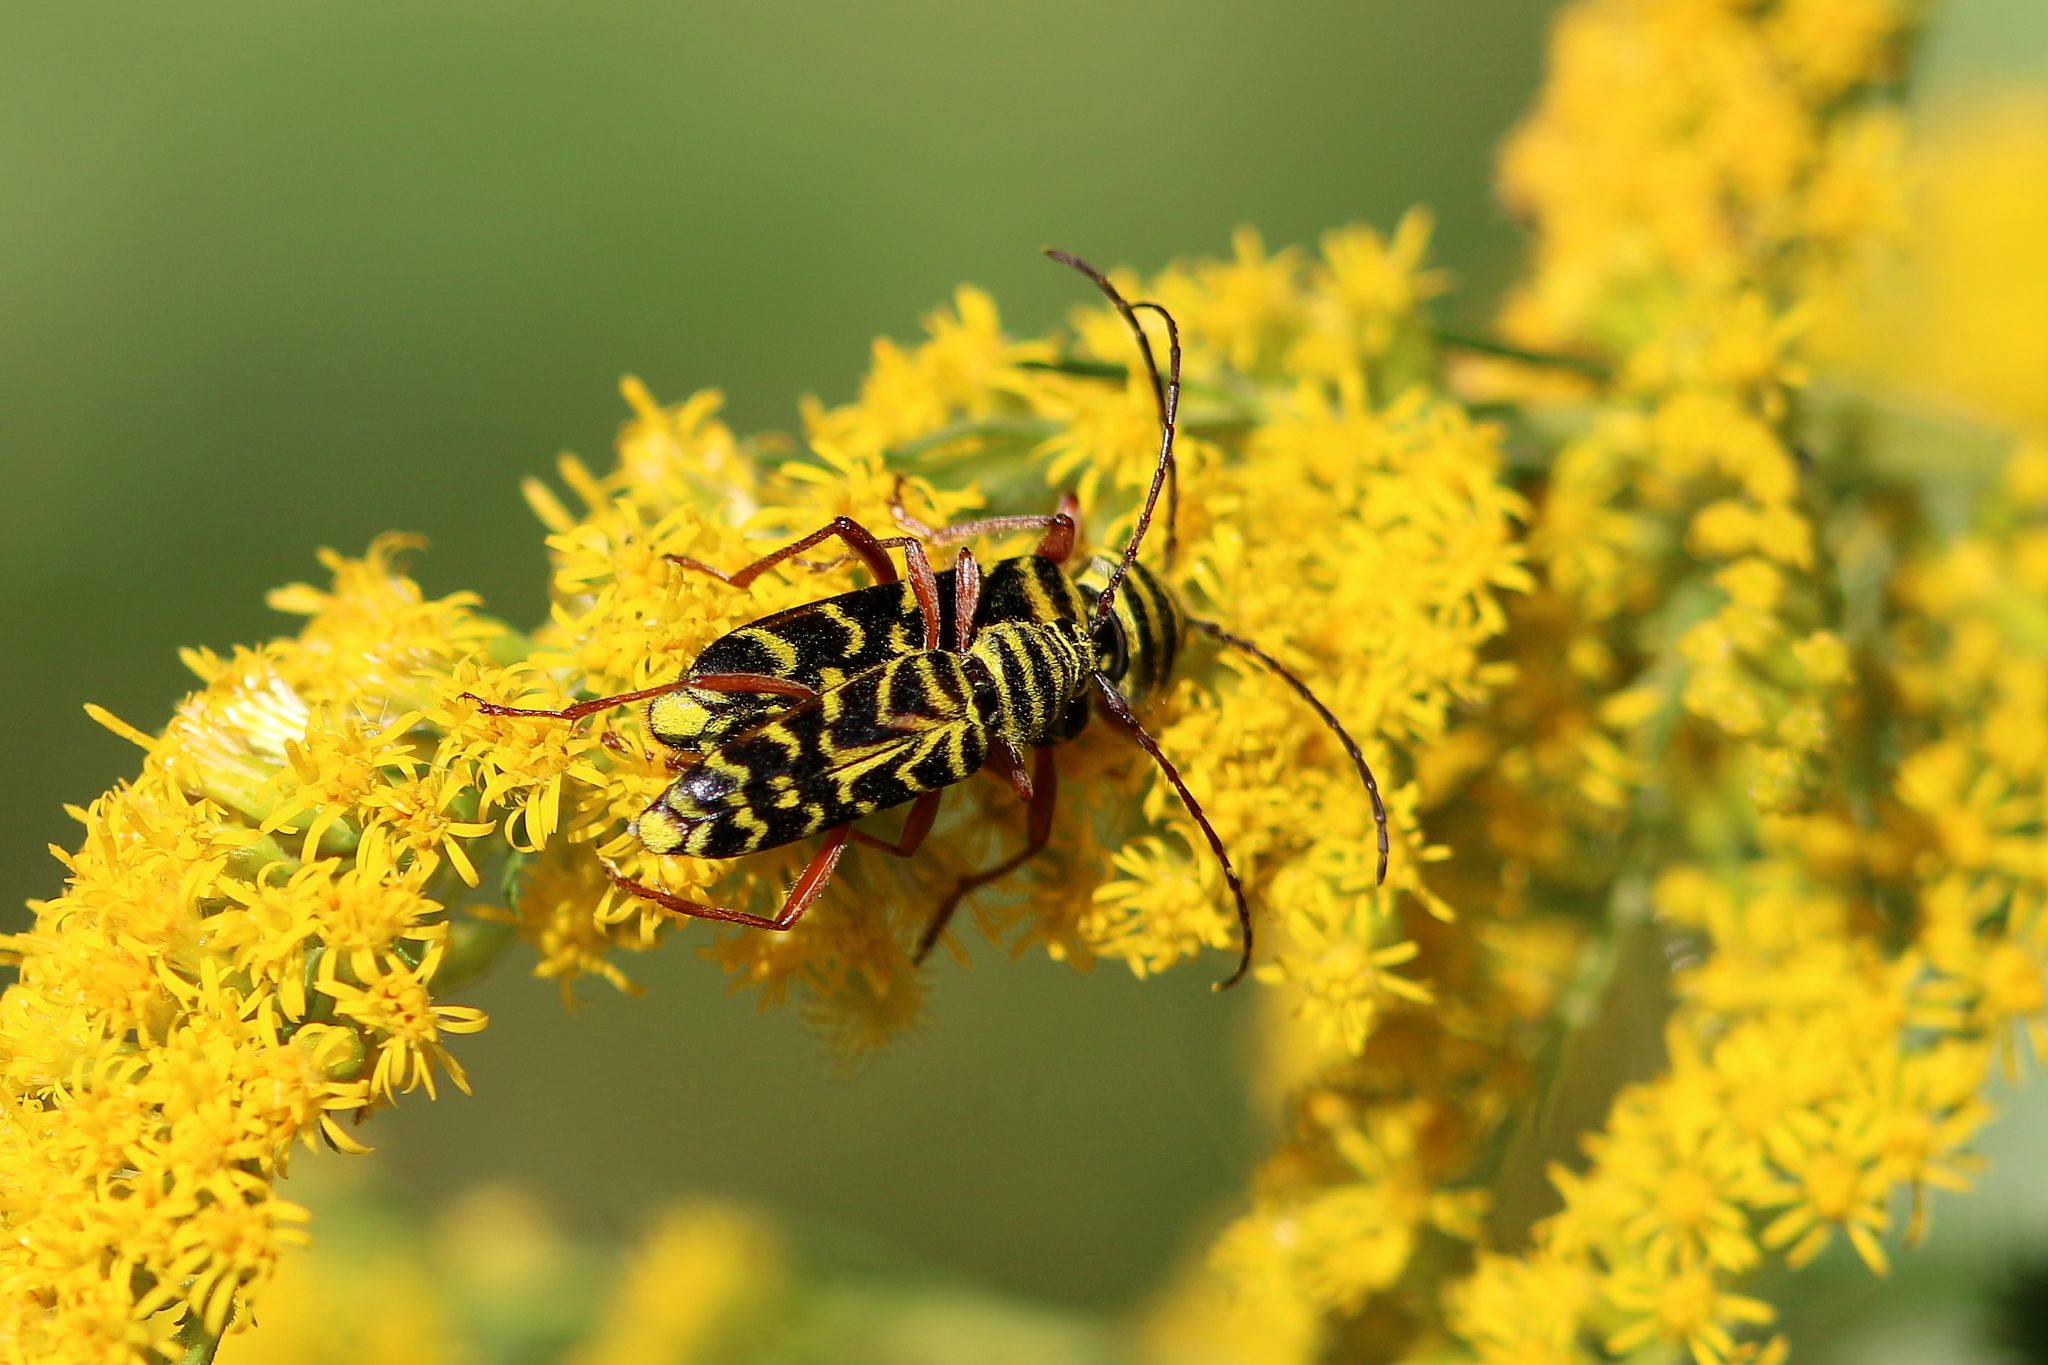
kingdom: Animalia
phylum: Arthropoda
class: Insecta
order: Coleoptera
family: Cerambycidae
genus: Megacyllene
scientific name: Megacyllene robiniae
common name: Locust borer
